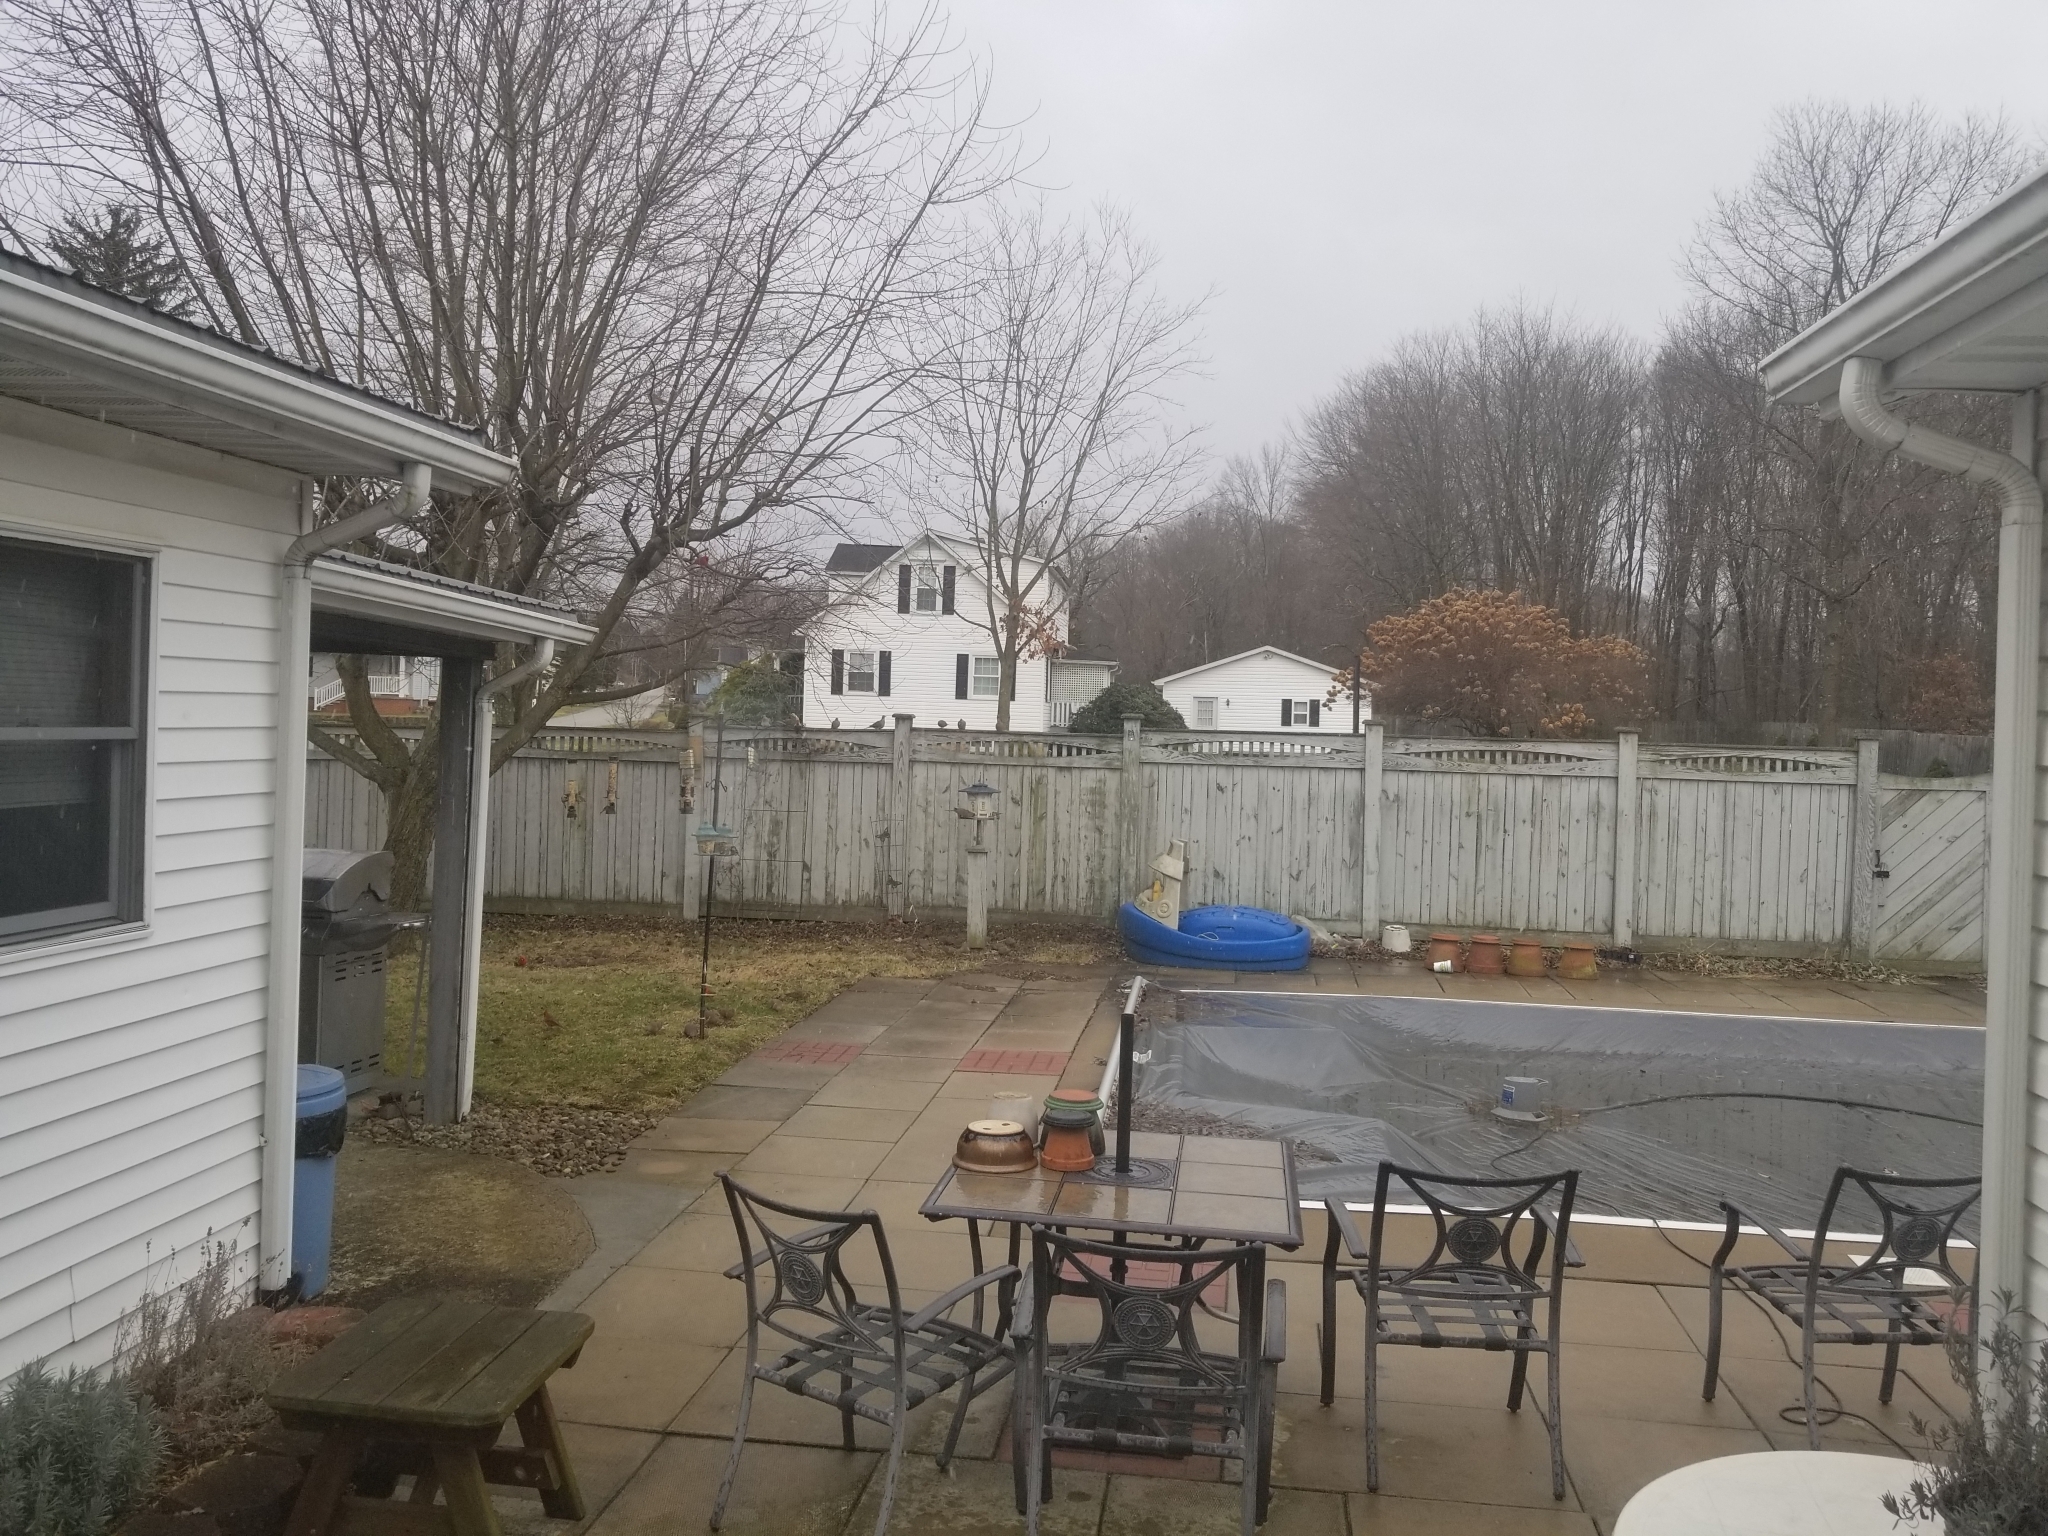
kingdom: Animalia
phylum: Chordata
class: Aves
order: Piciformes
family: Picidae
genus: Dryobates
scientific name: Dryobates pubescens
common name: Downy woodpecker
